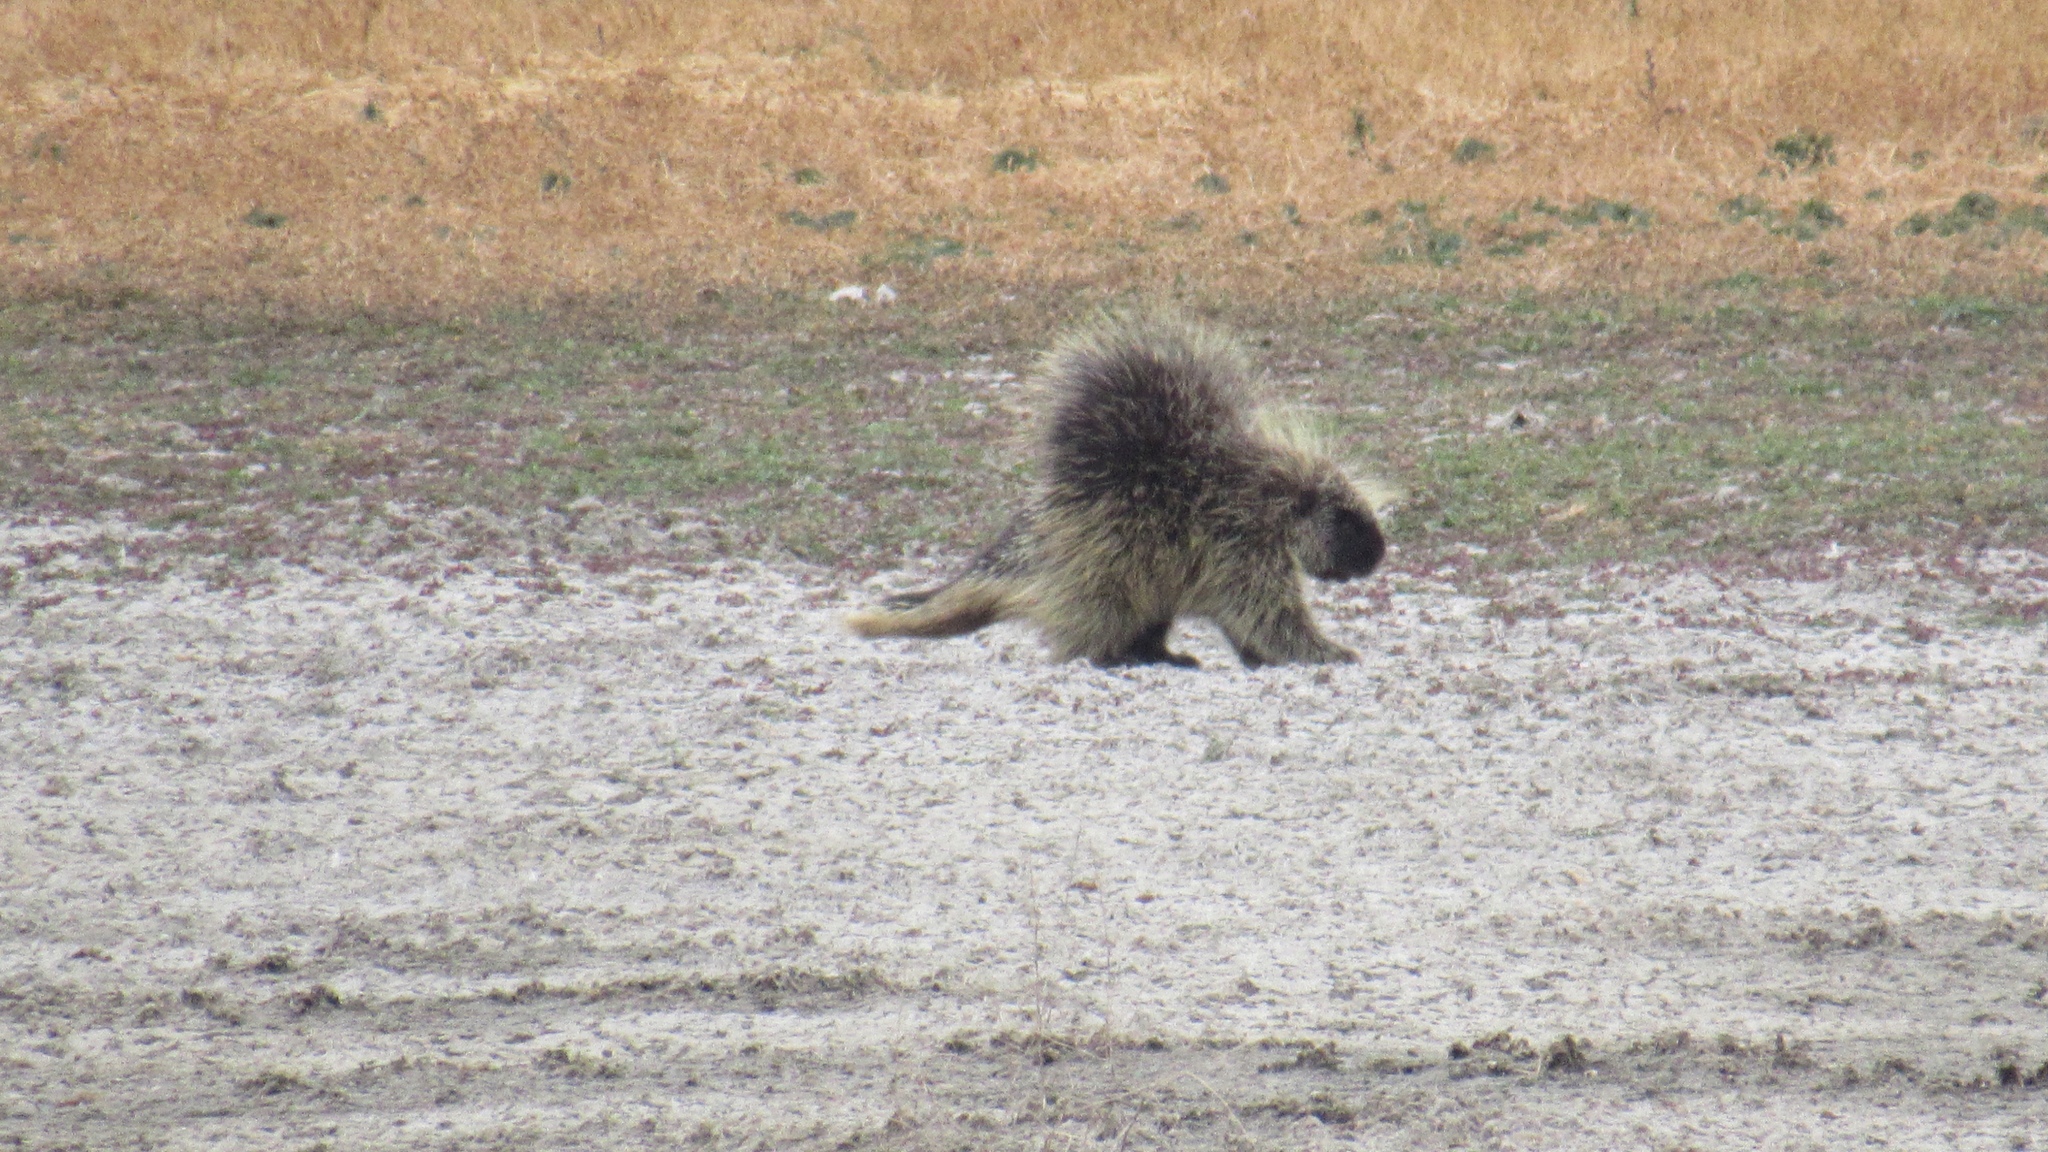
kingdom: Animalia
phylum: Chordata
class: Mammalia
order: Rodentia
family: Erethizontidae
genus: Erethizon
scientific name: Erethizon dorsatus
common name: North american porcupine
